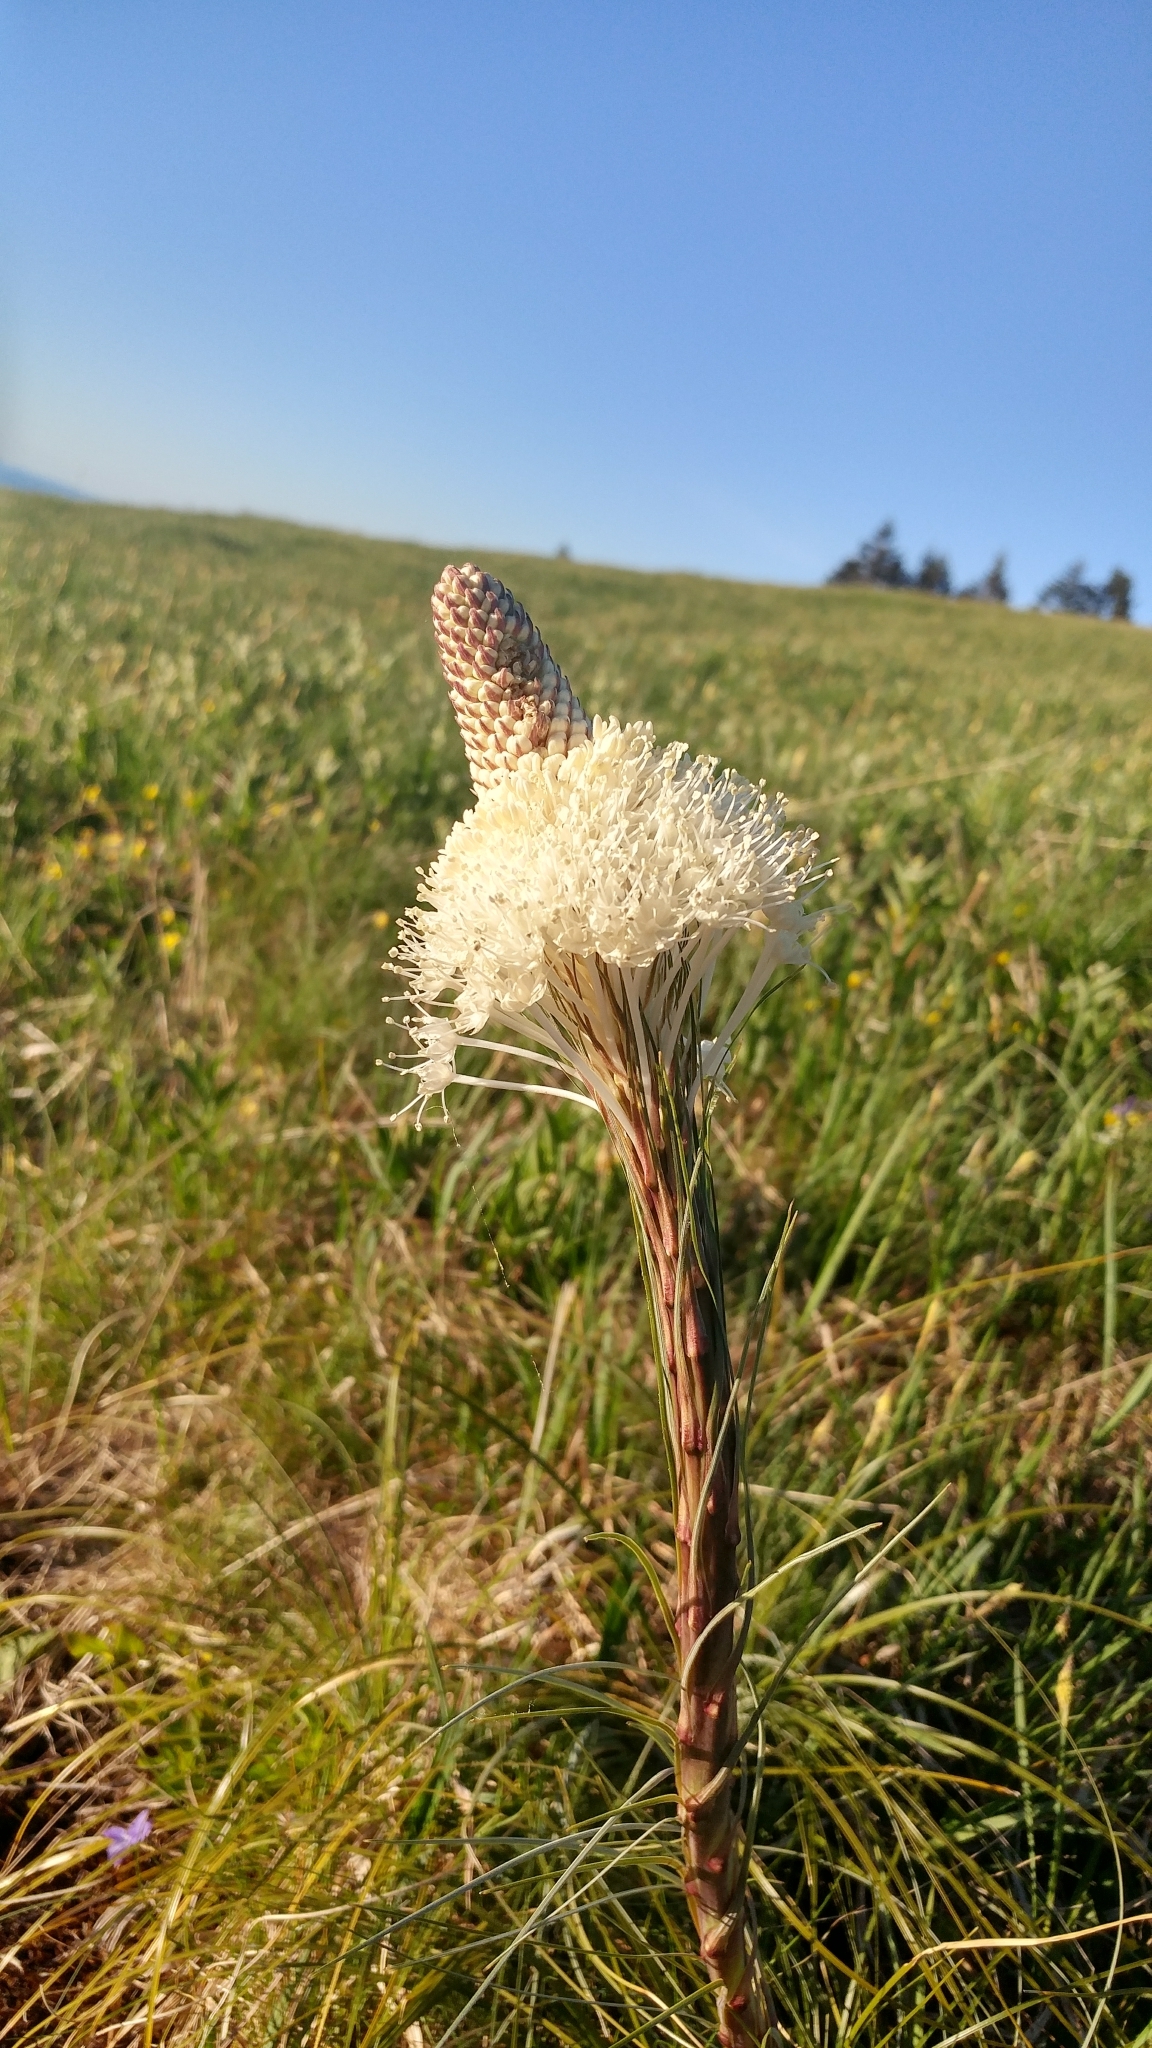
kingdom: Plantae
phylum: Tracheophyta
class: Liliopsida
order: Liliales
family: Melanthiaceae
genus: Xerophyllum
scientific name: Xerophyllum tenax
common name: Bear-grass
